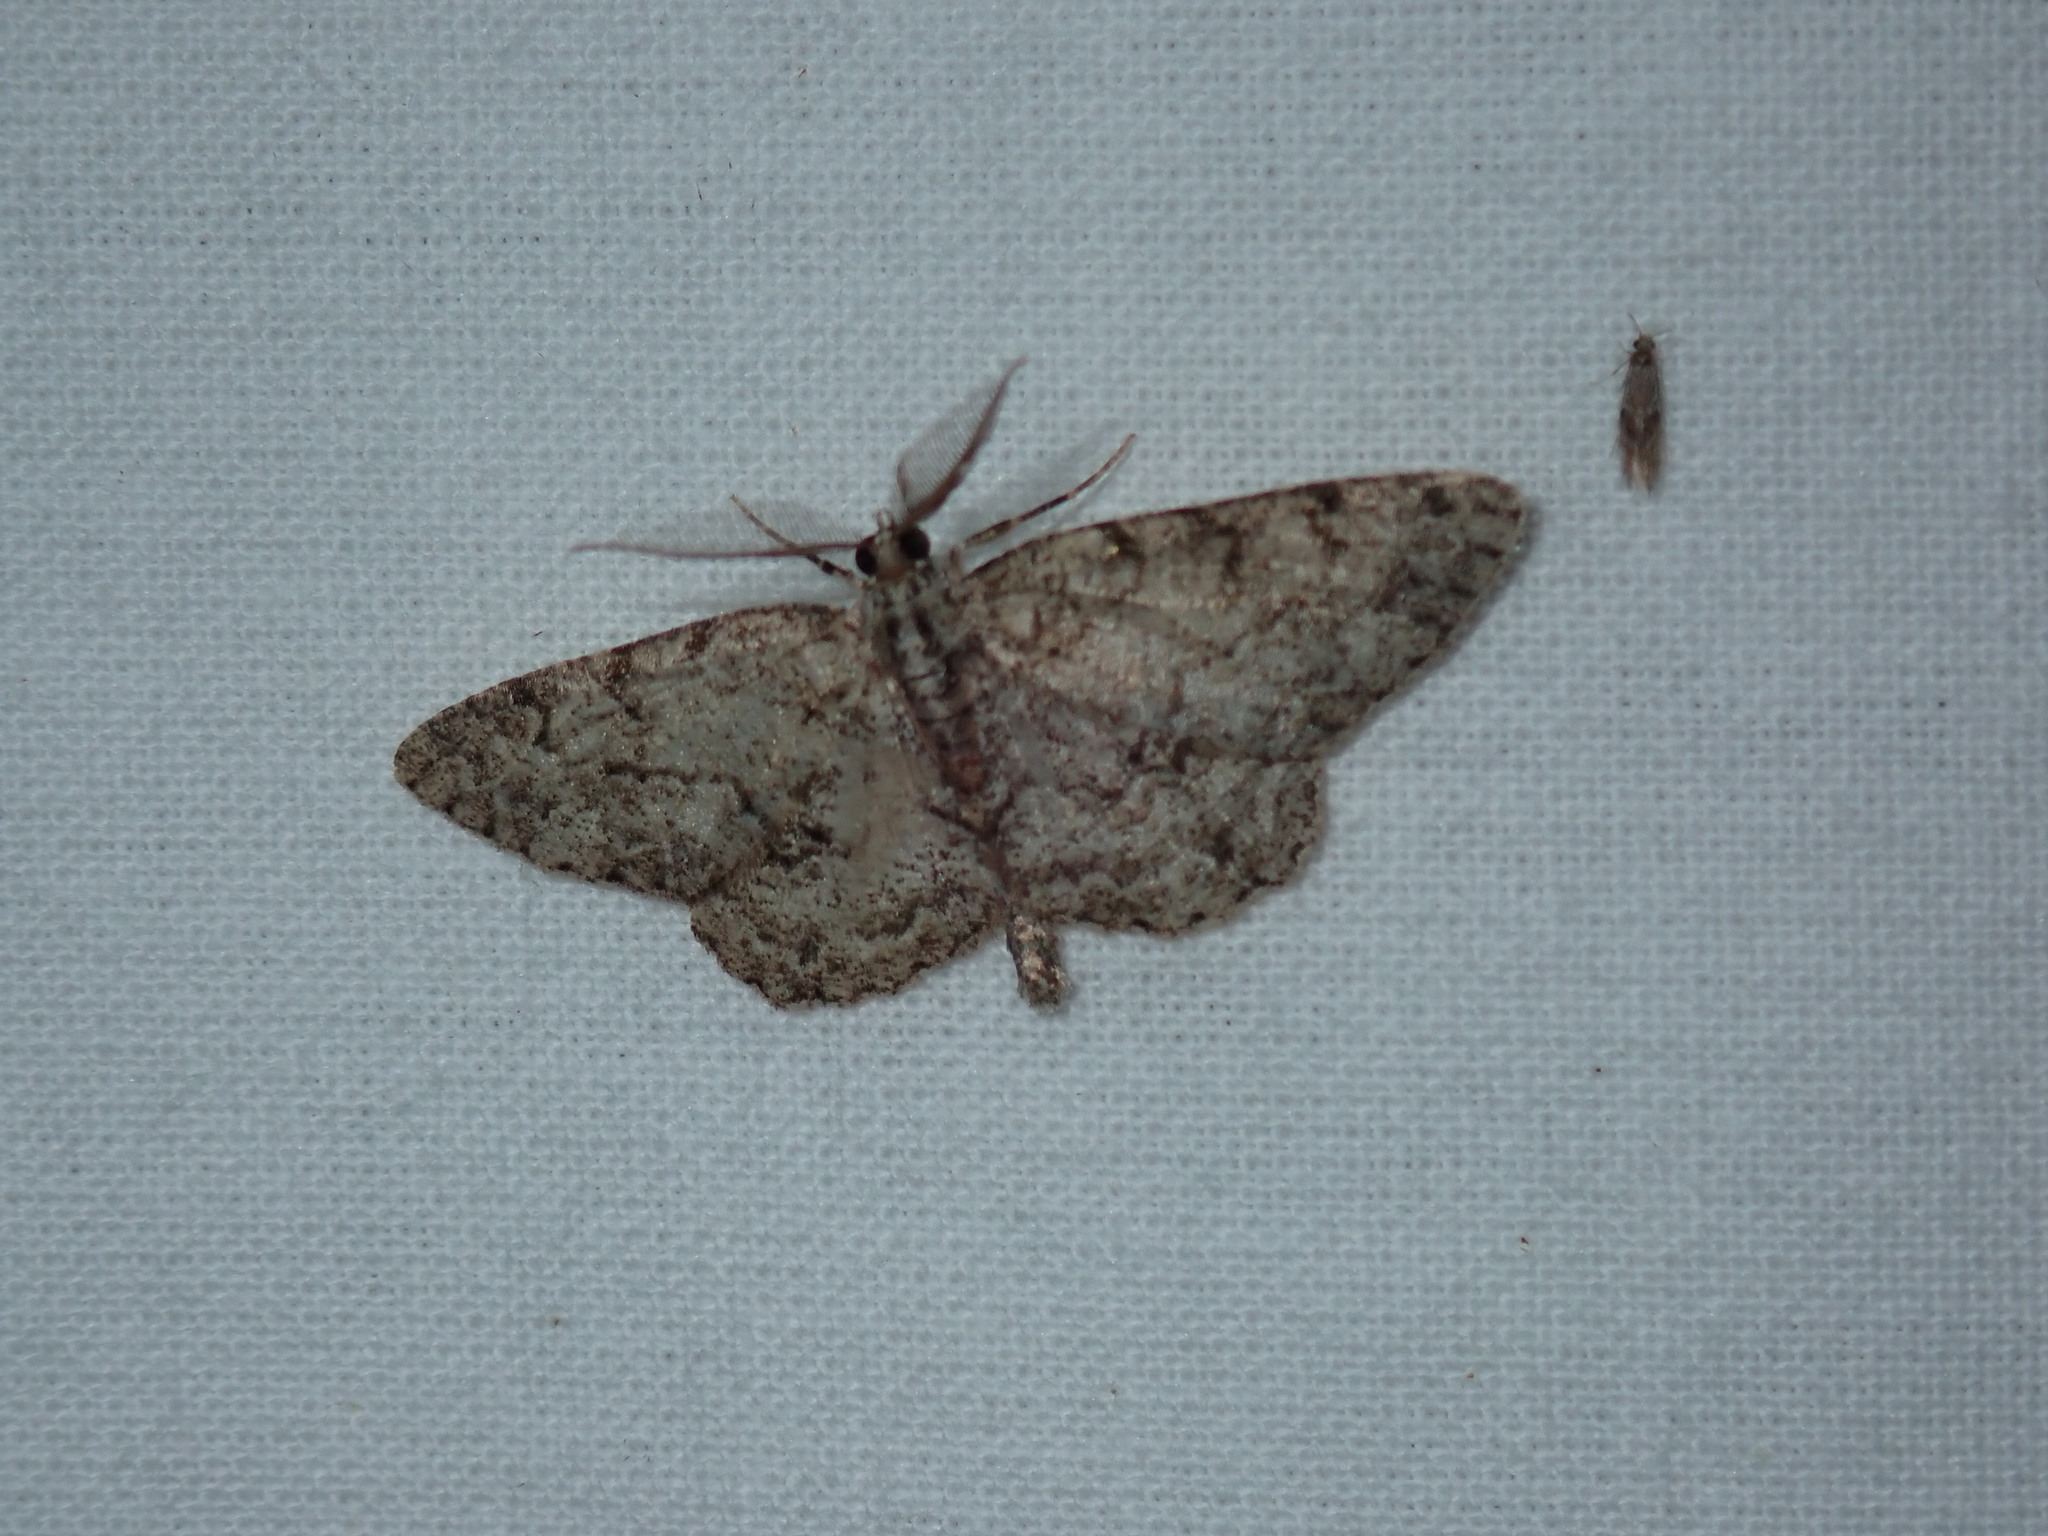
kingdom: Animalia
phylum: Arthropoda
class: Insecta
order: Lepidoptera
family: Geometridae
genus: Protoboarmia
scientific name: Protoboarmia porcelaria
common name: Porcelain gray
